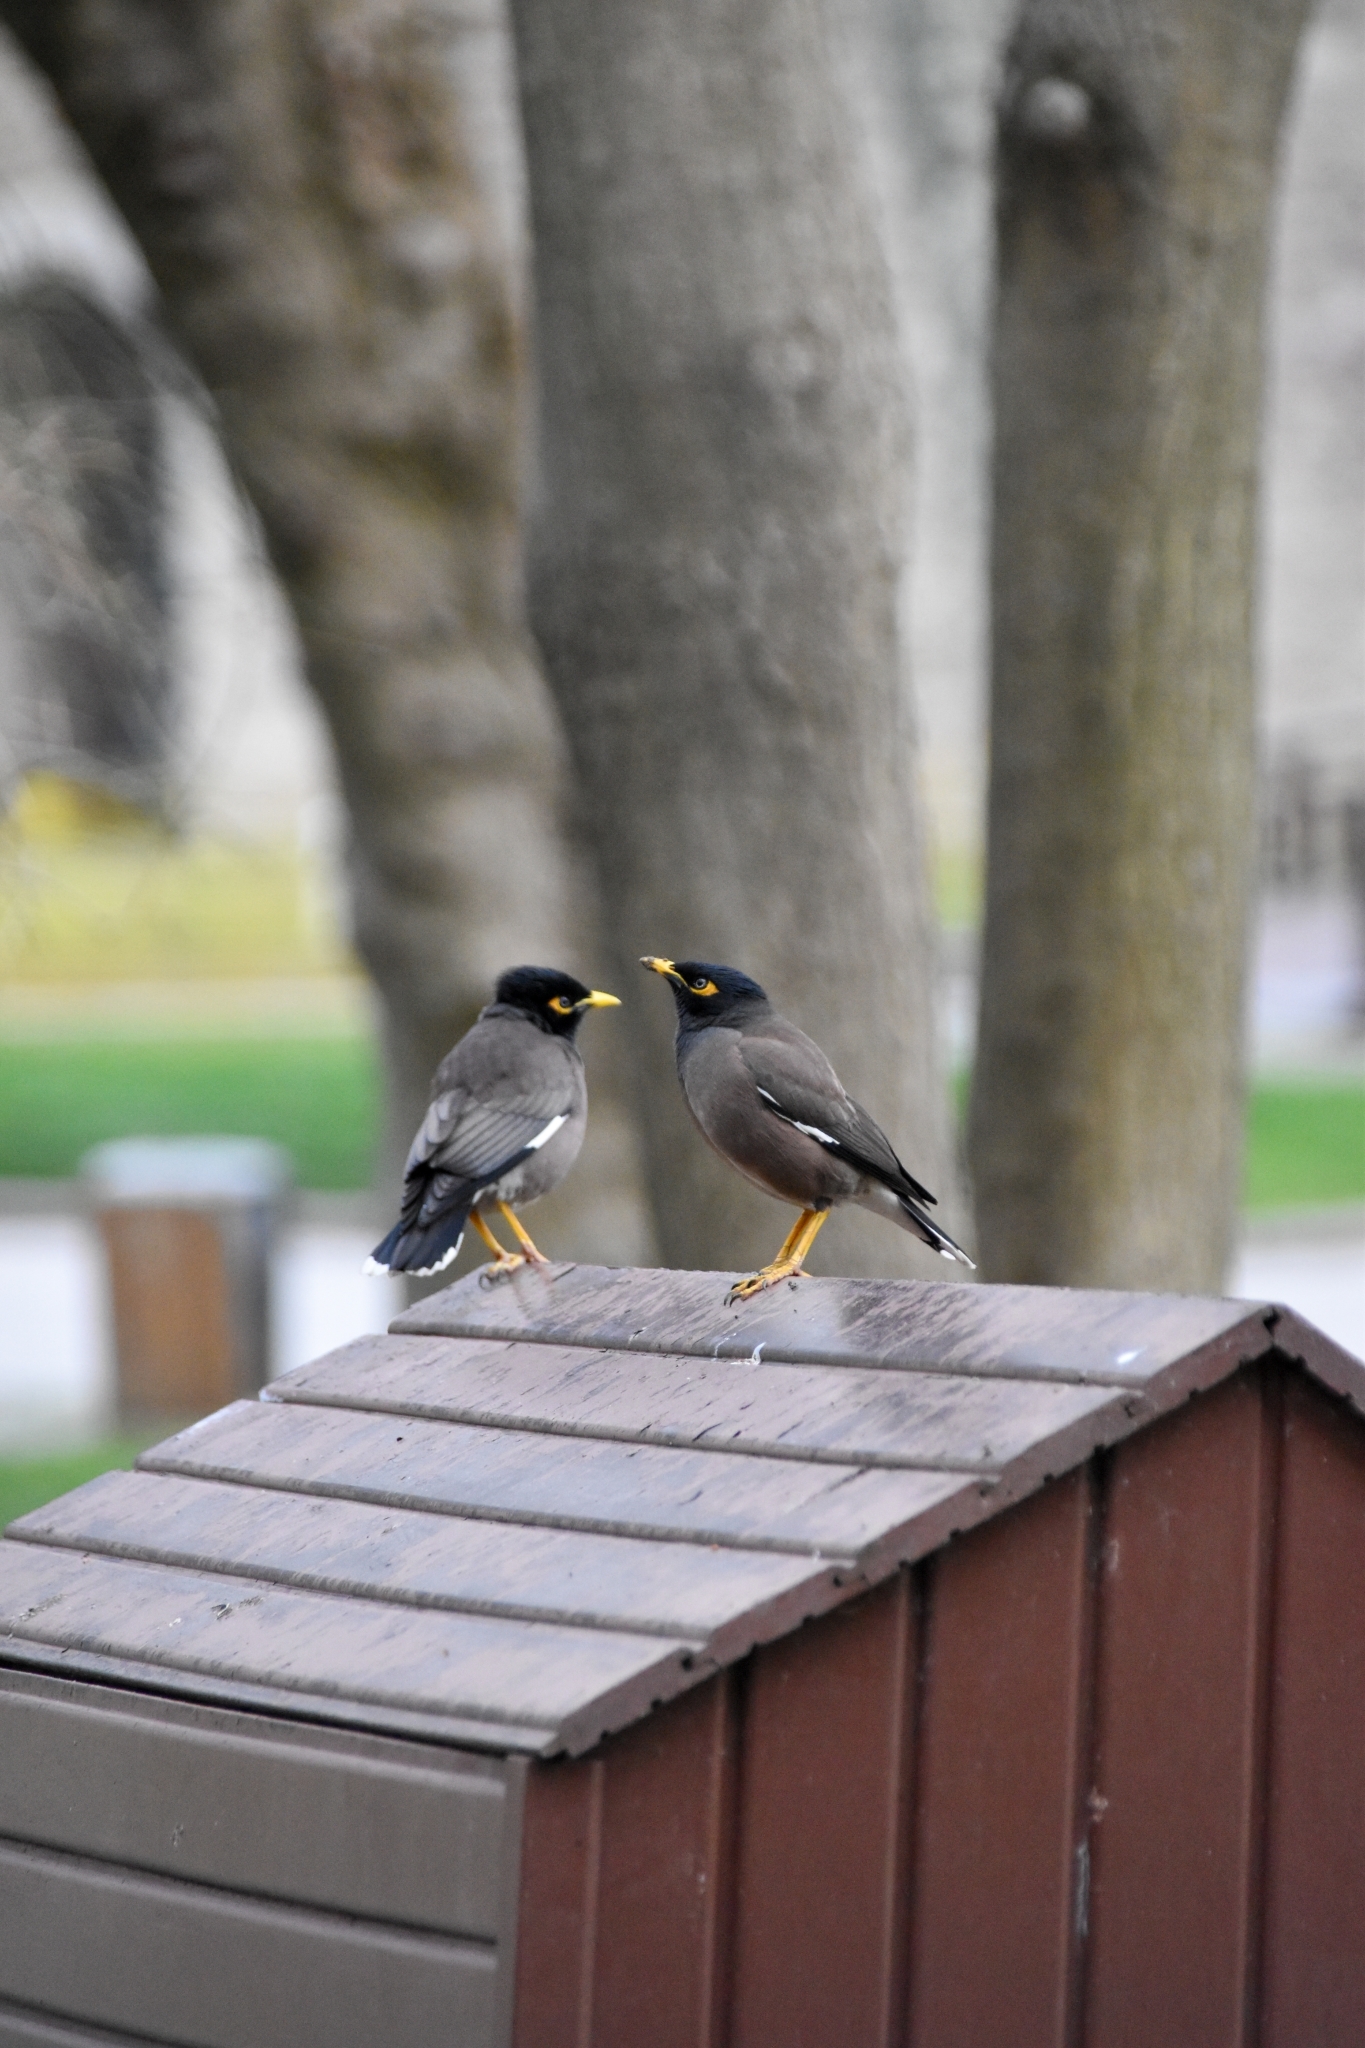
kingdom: Animalia
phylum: Chordata
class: Aves
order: Passeriformes
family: Sturnidae
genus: Acridotheres
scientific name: Acridotheres tristis
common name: Common myna
